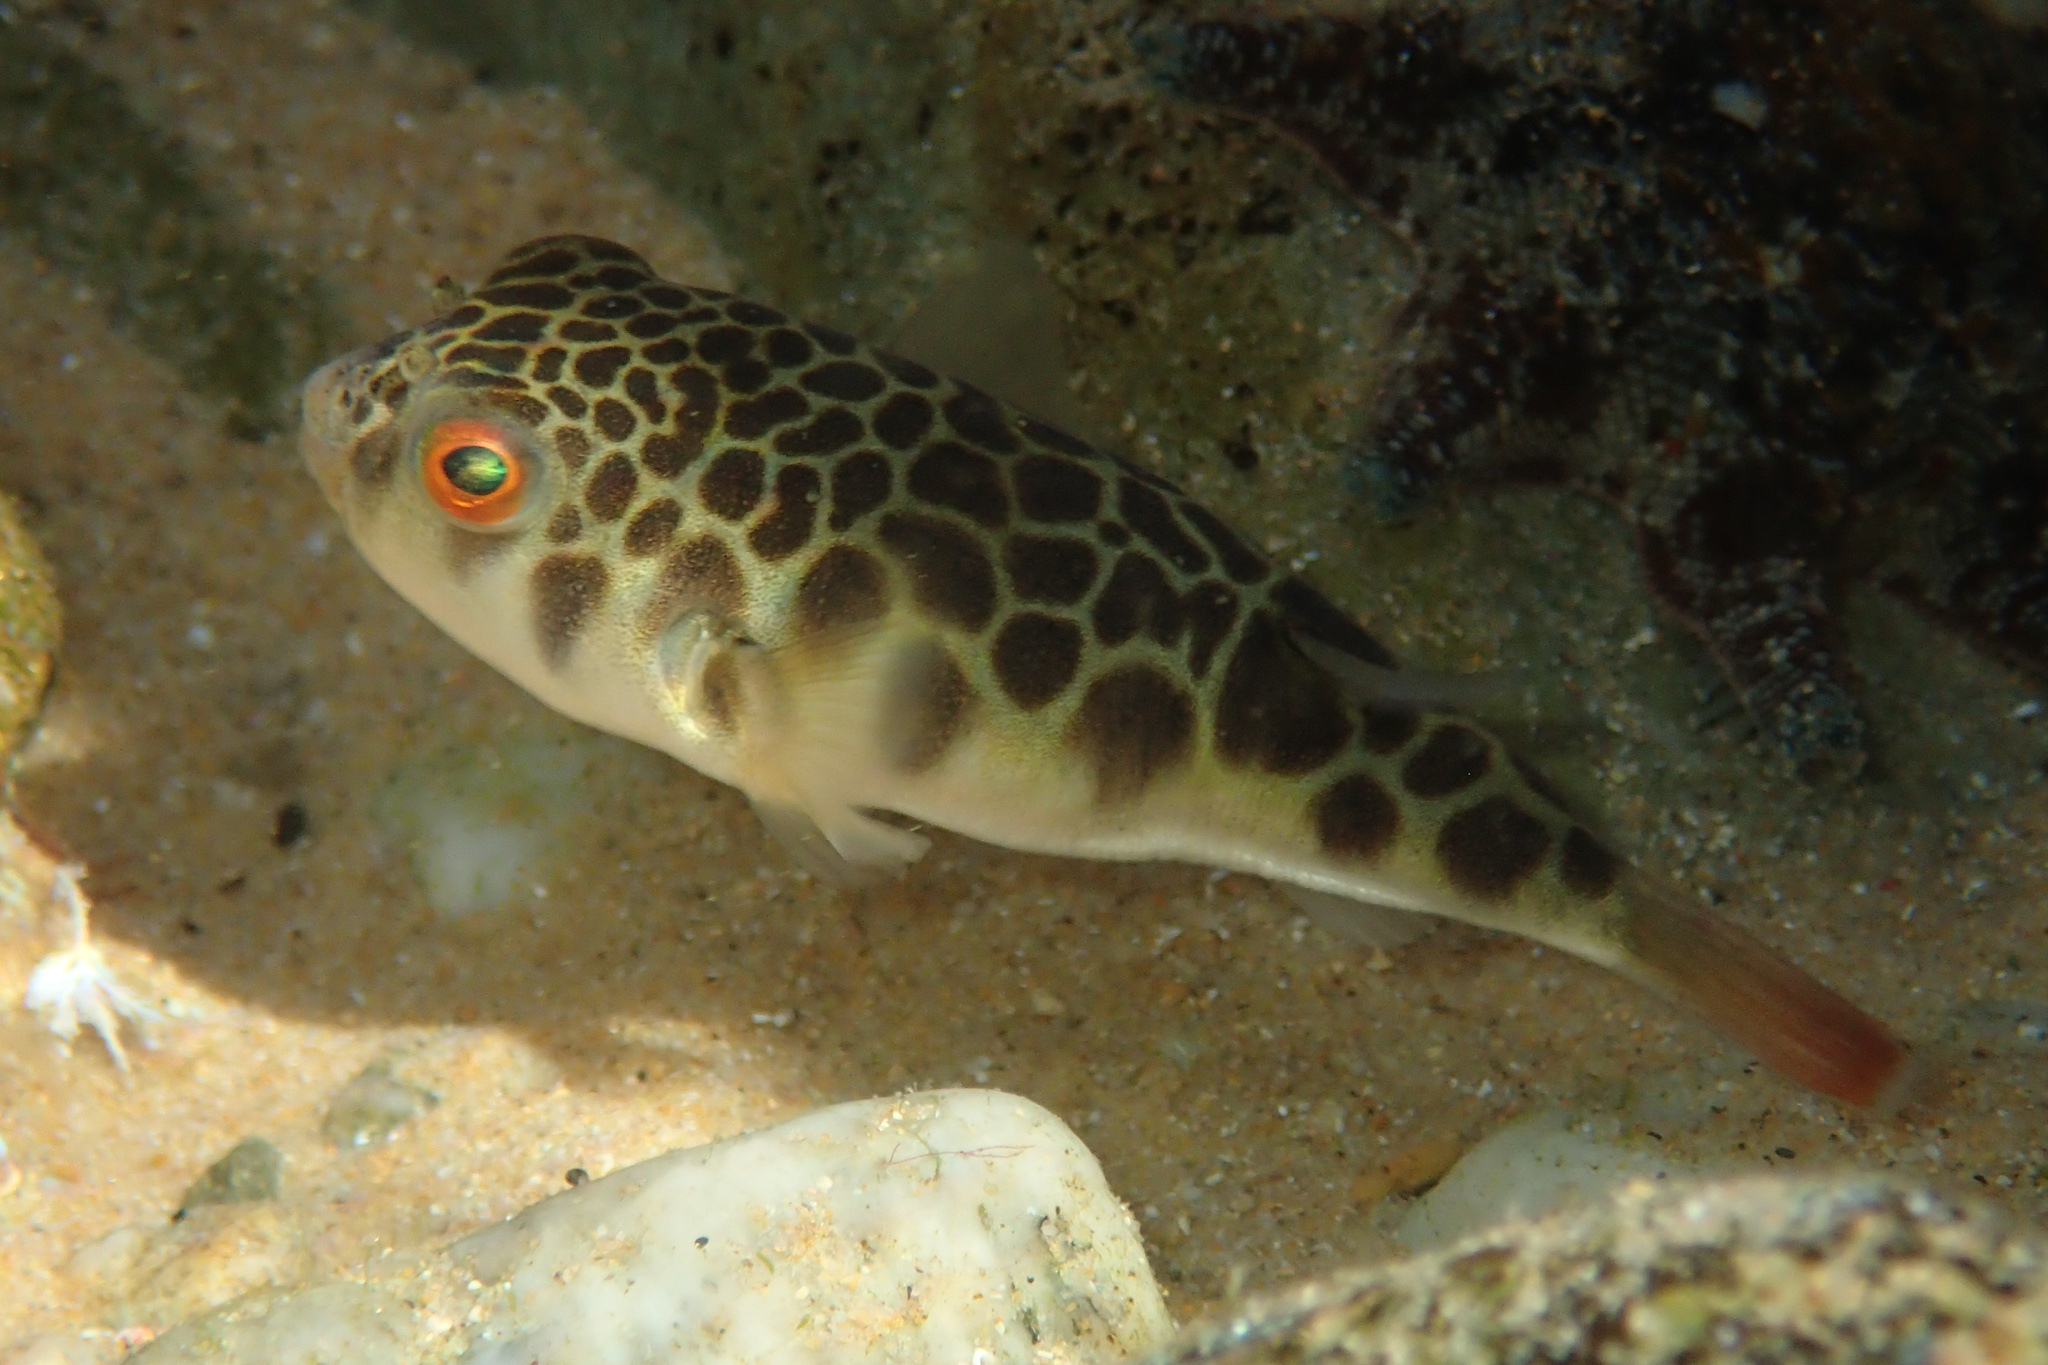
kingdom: Animalia
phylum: Chordata
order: Tetraodontiformes
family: Tetraodontidae
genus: Tetractenos
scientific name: Tetractenos glaber
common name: Smooth toadfish
